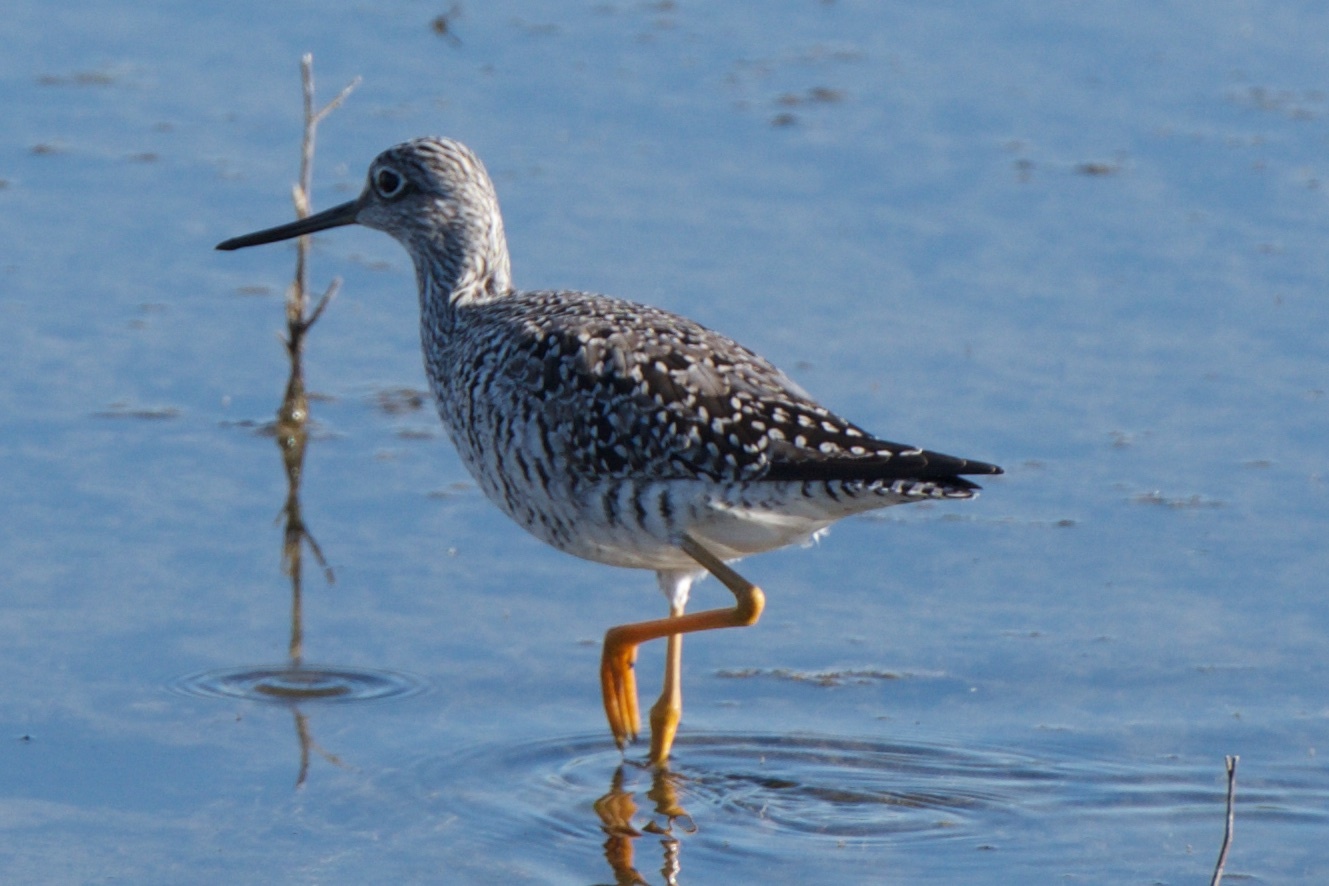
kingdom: Animalia
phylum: Chordata
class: Aves
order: Charadriiformes
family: Scolopacidae
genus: Tringa
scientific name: Tringa melanoleuca
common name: Greater yellowlegs
